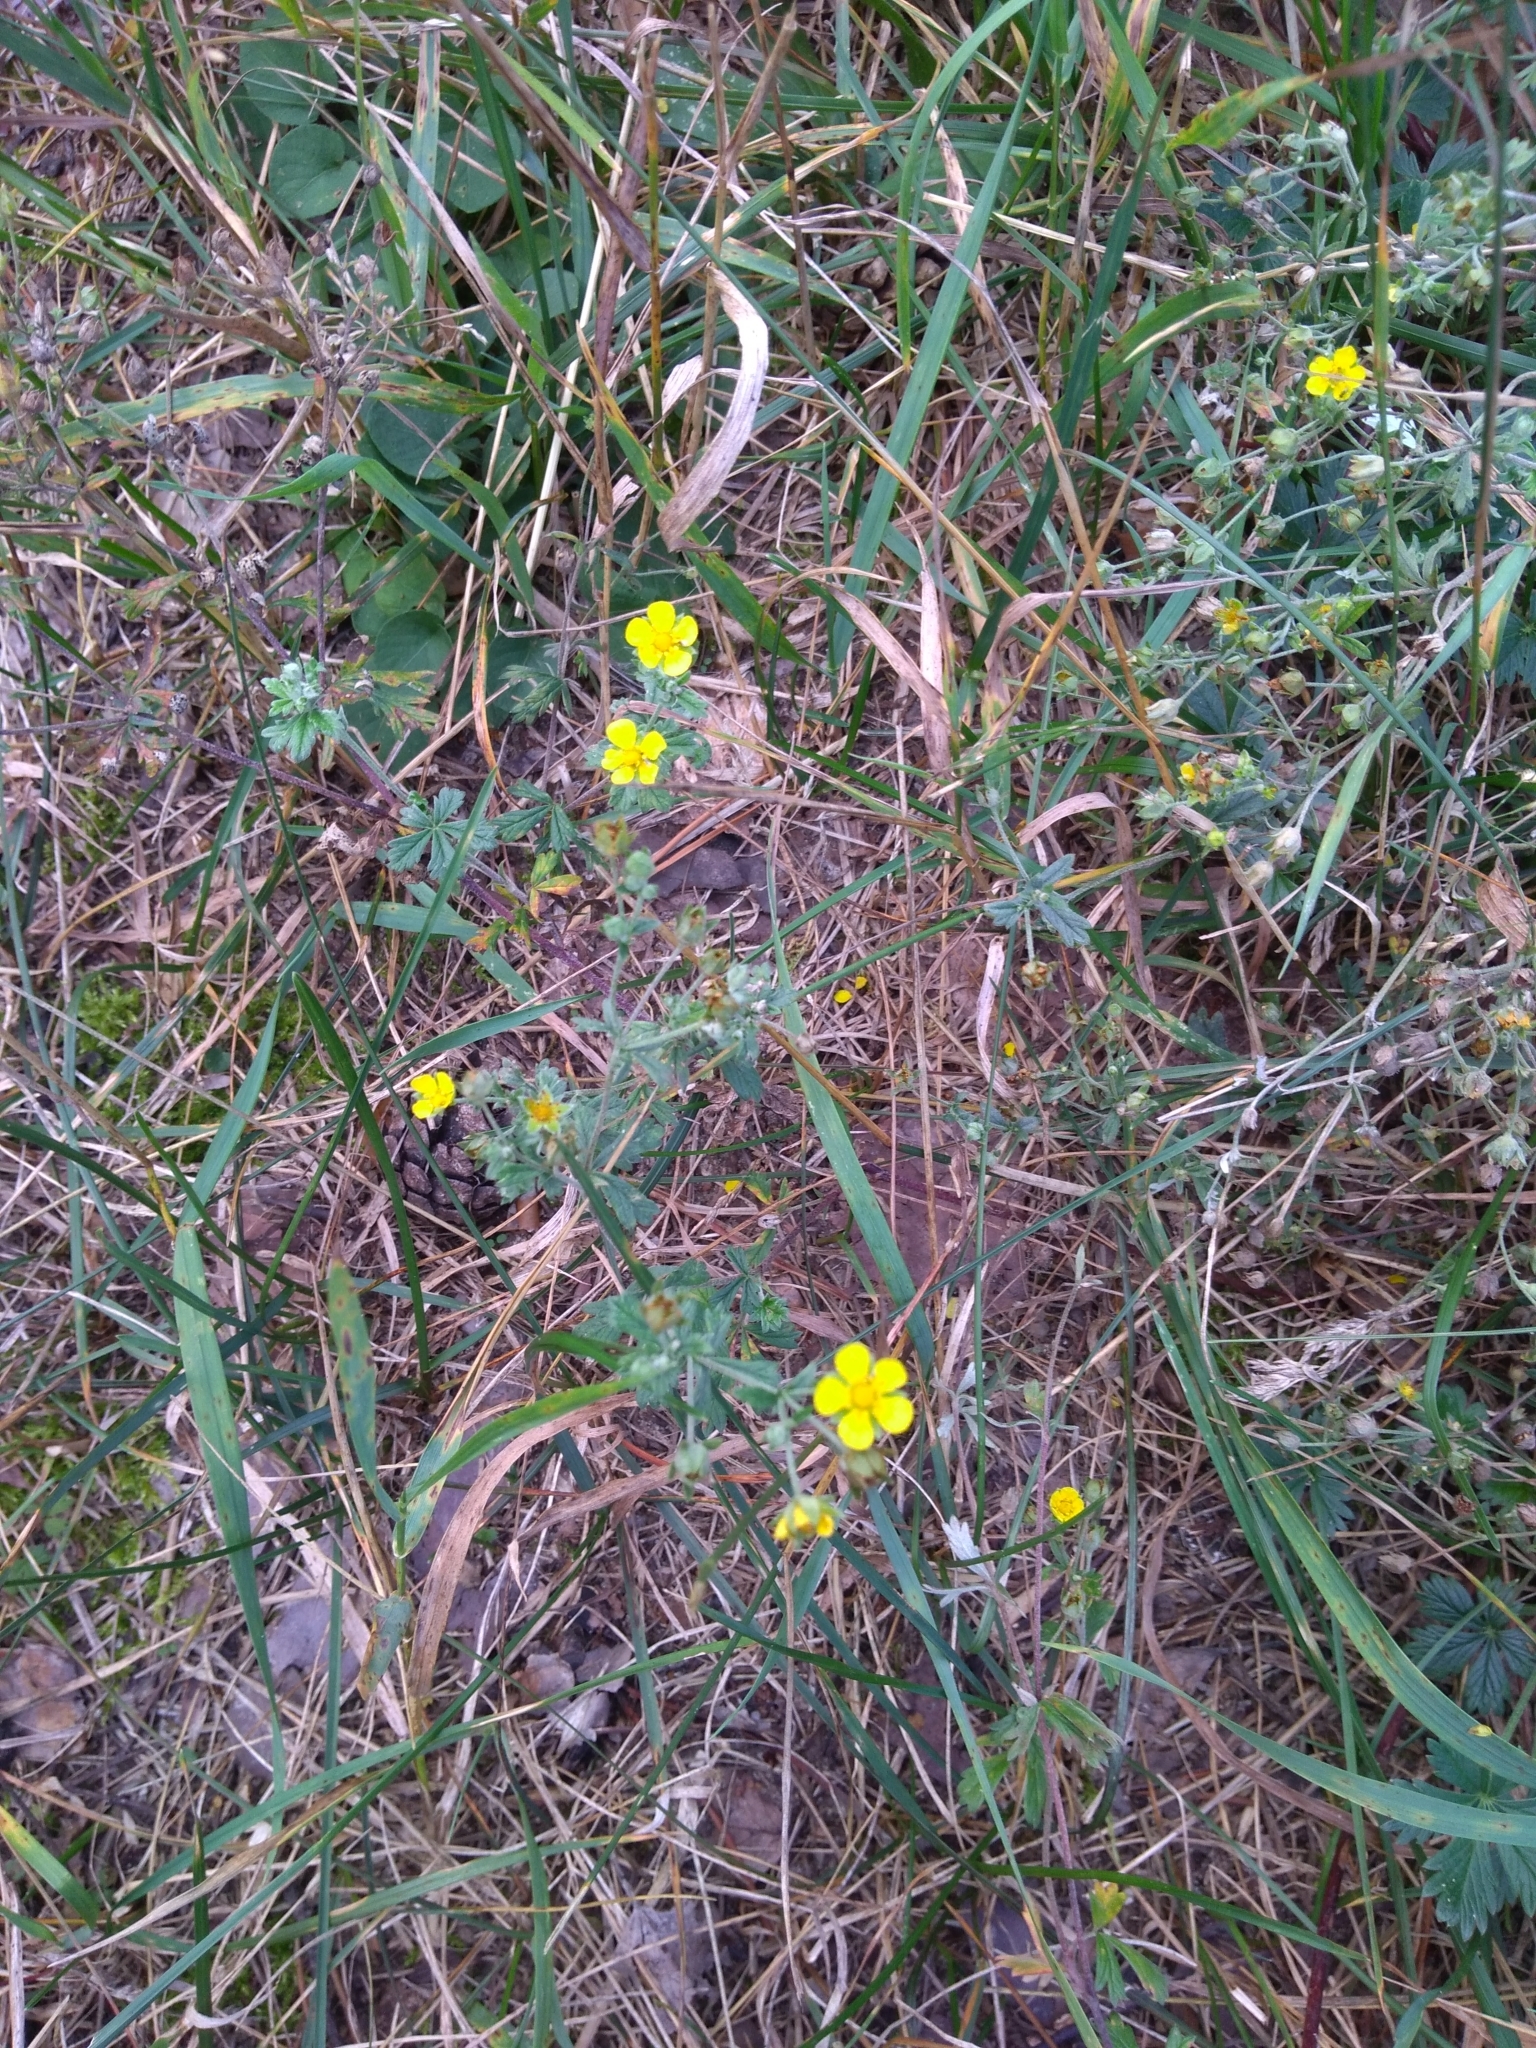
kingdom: Plantae
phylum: Tracheophyta
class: Magnoliopsida
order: Rosales
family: Rosaceae
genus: Potentilla
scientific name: Potentilla argentea
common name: Hoary cinquefoil
